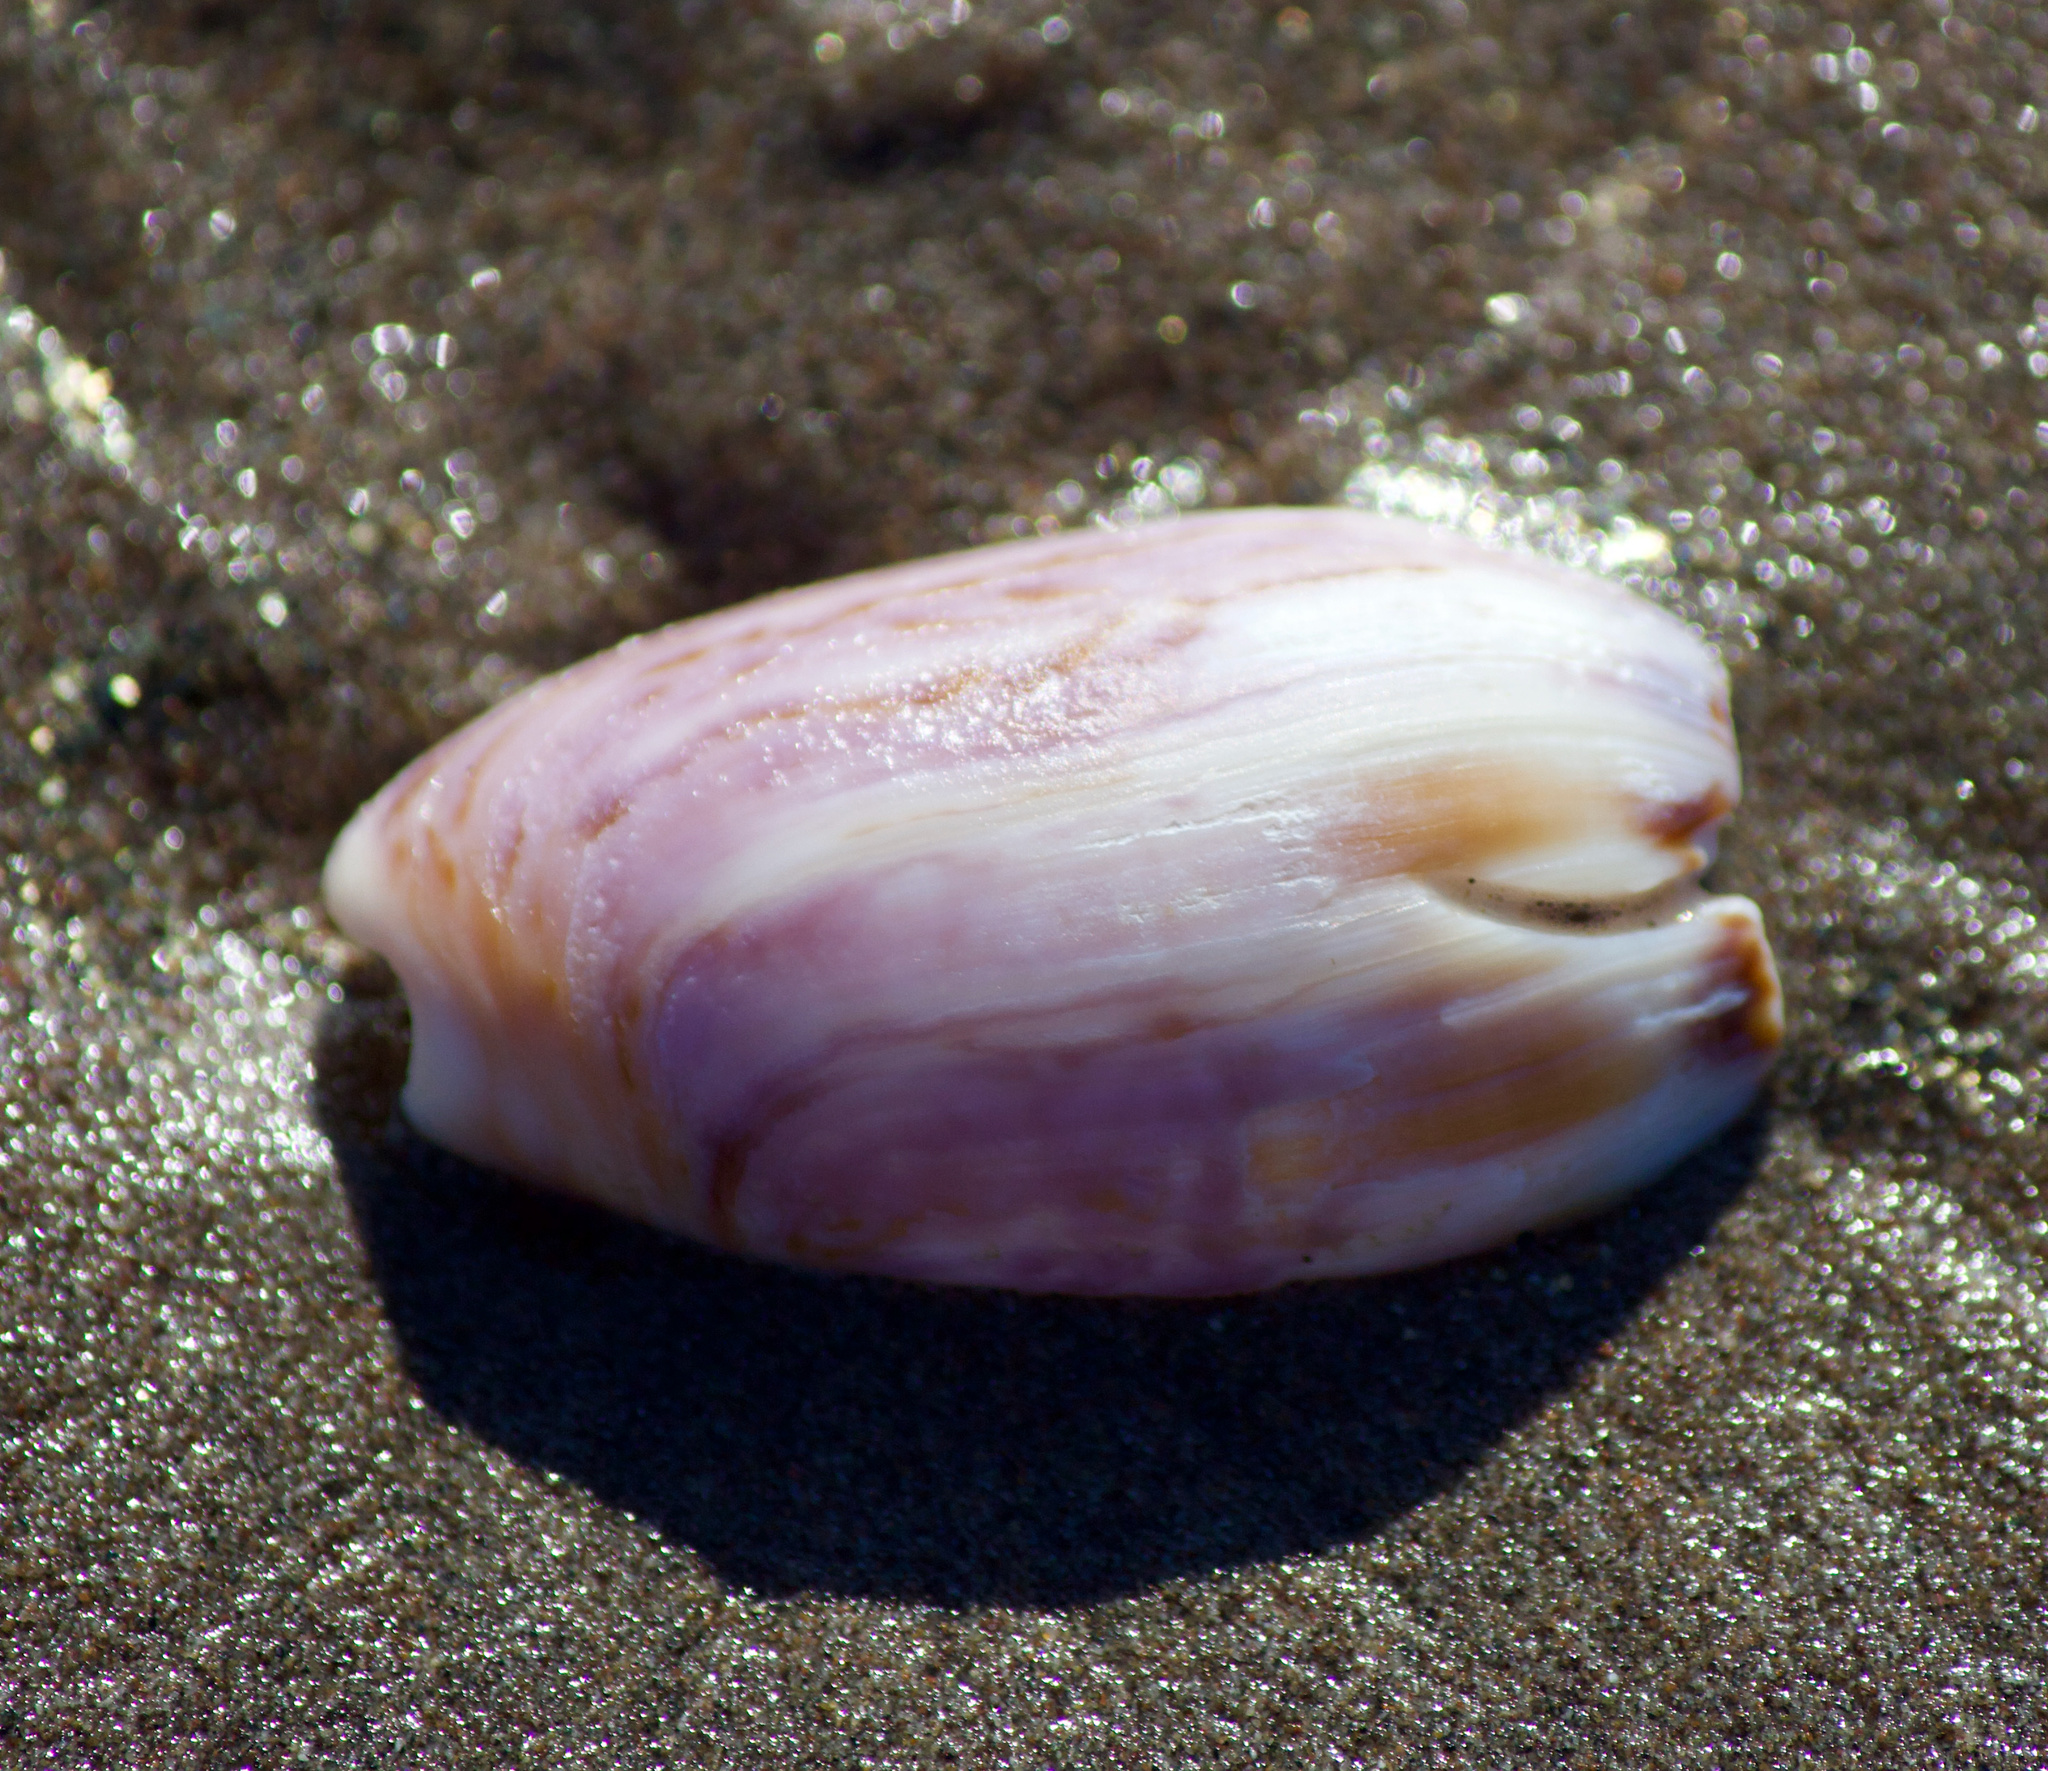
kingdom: Animalia
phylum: Mollusca
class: Gastropoda
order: Neogastropoda
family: Olividae
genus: Felicioliva
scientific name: Felicioliva peruviana
